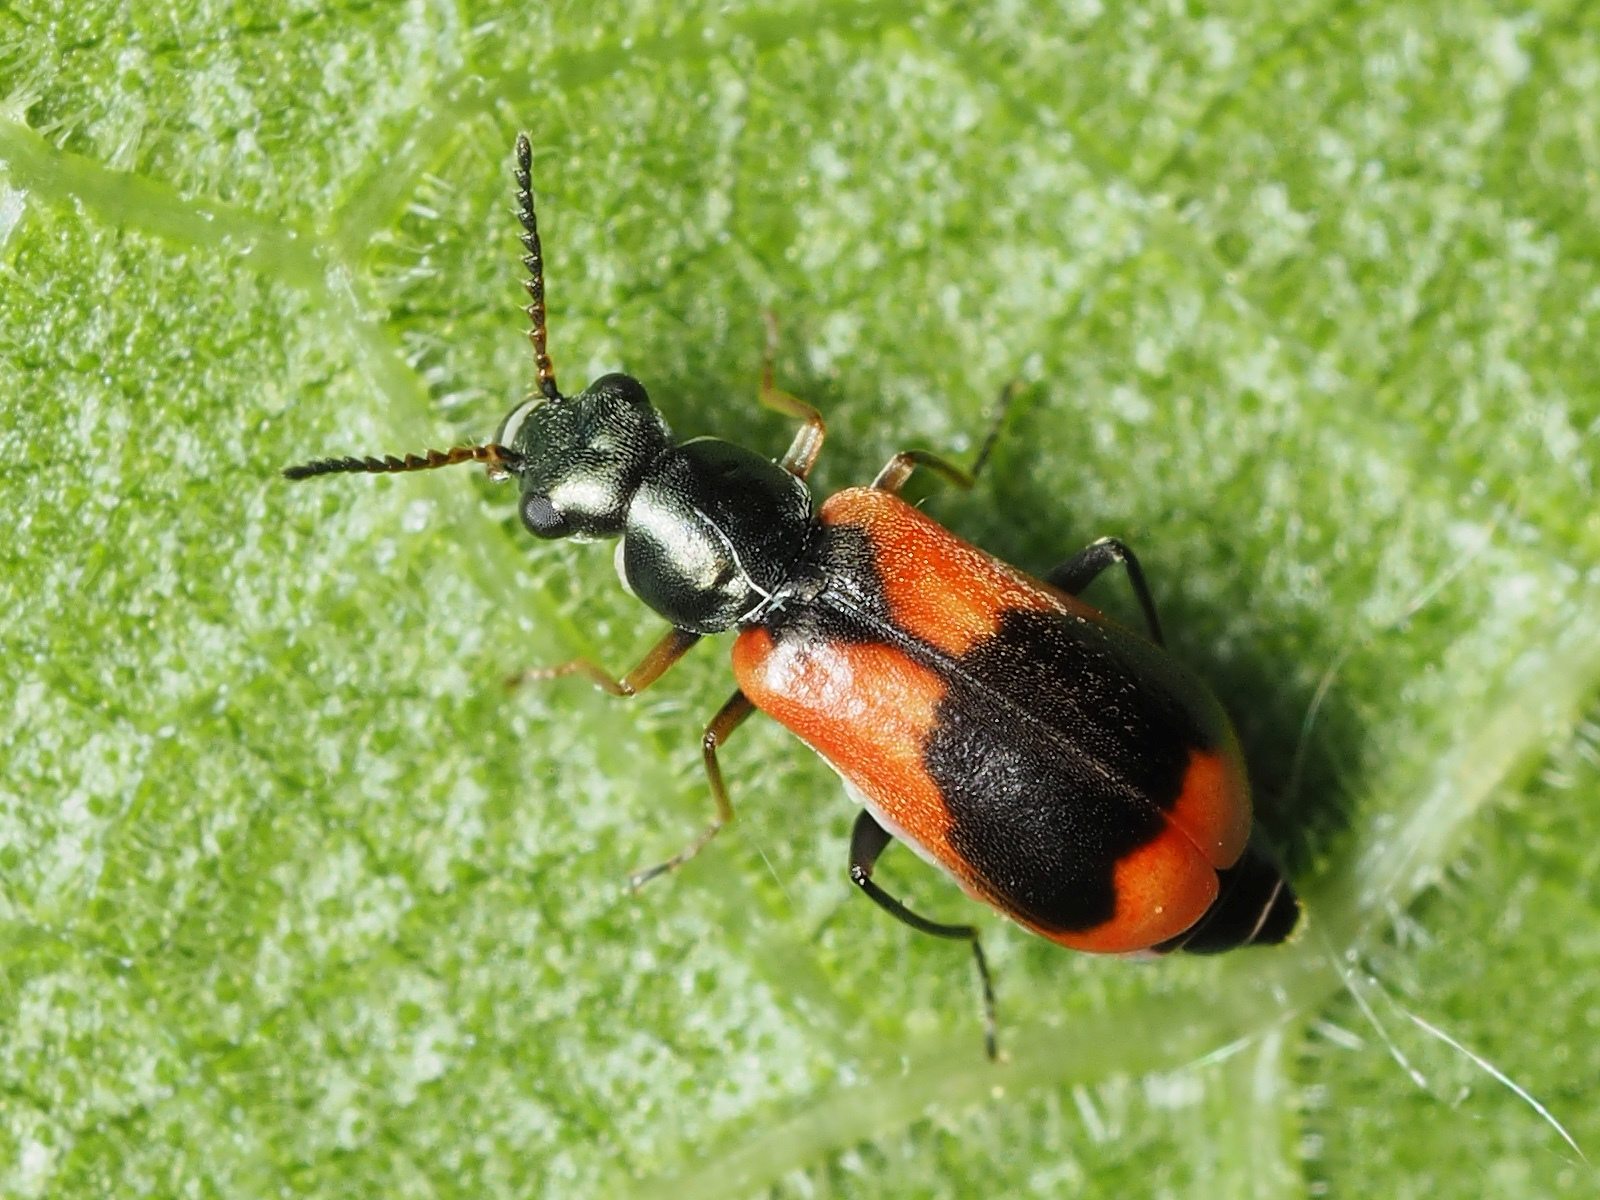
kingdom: Animalia
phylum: Arthropoda
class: Insecta
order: Coleoptera
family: Melyridae
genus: Anthocomus
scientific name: Anthocomus equestris
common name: Black-banded soft-winged flower beetle
